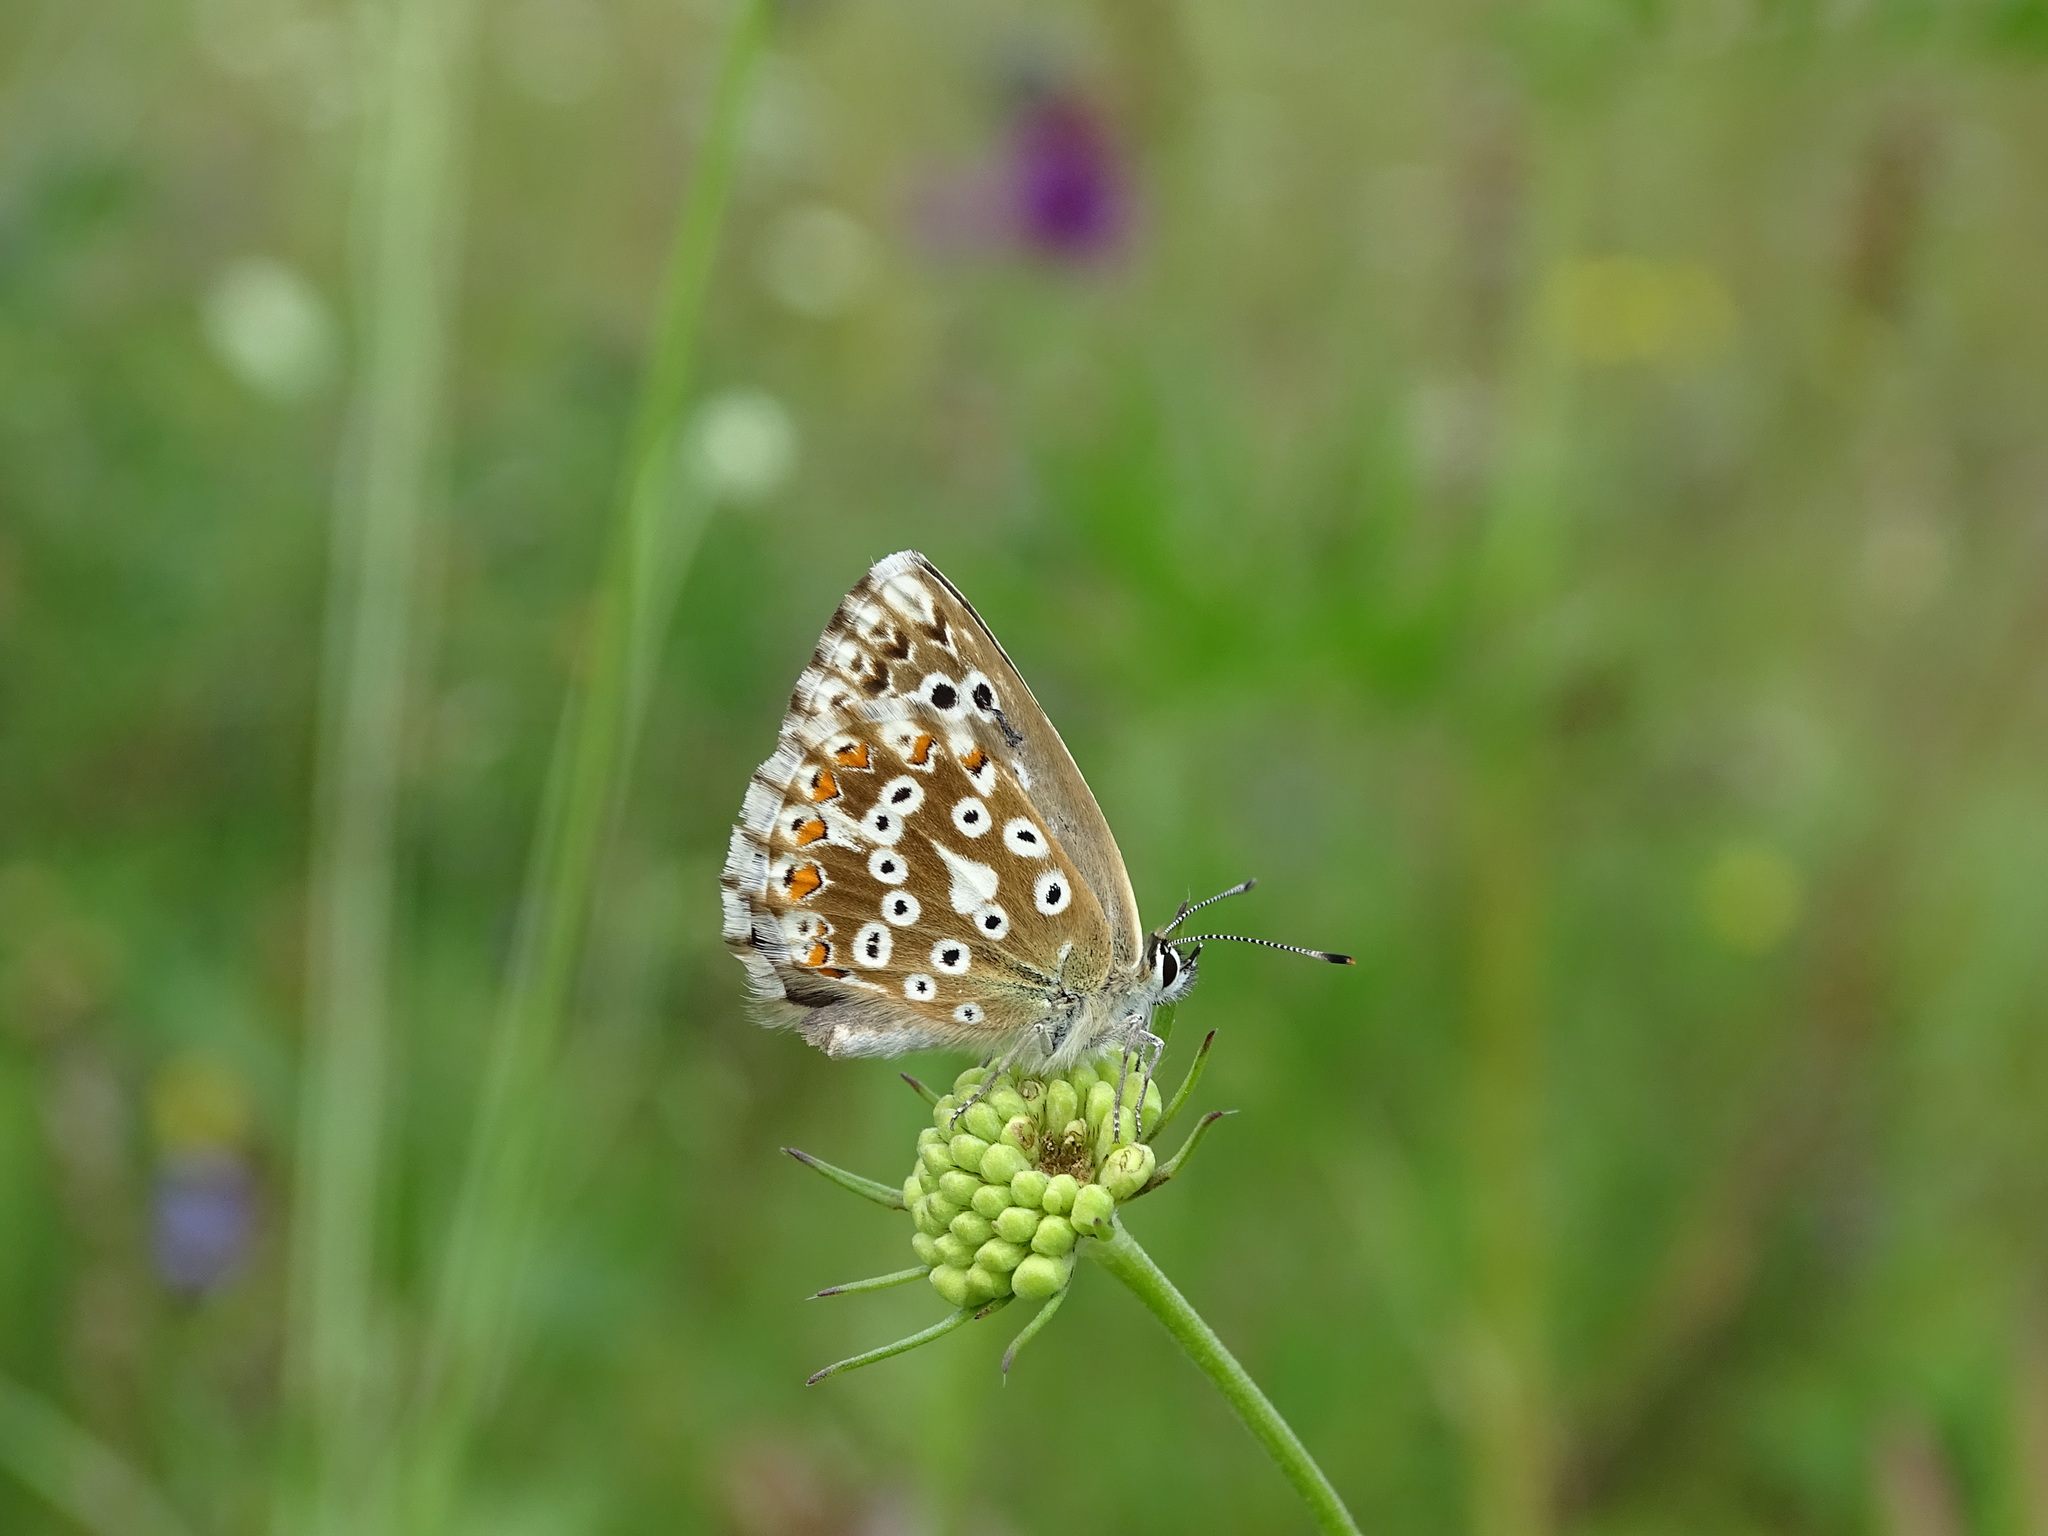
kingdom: Animalia
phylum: Arthropoda
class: Insecta
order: Lepidoptera
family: Lycaenidae
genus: Lysandra
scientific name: Lysandra coridon
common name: Chalkhill blue
